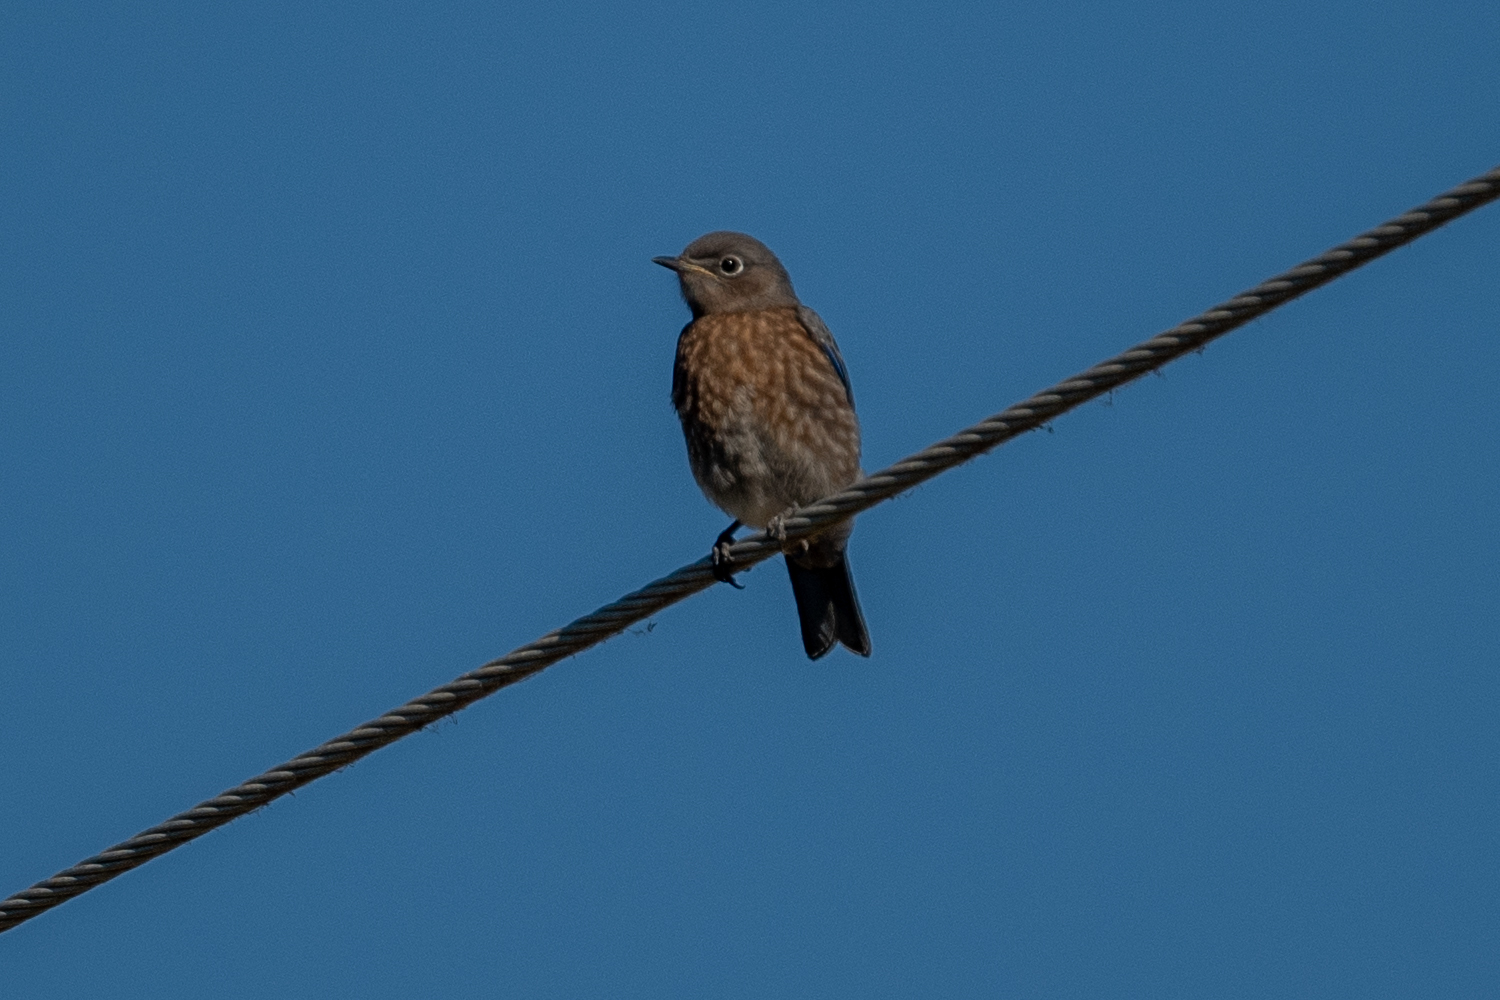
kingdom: Animalia
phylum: Chordata
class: Aves
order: Passeriformes
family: Turdidae
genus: Sialia
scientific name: Sialia mexicana
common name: Western bluebird
